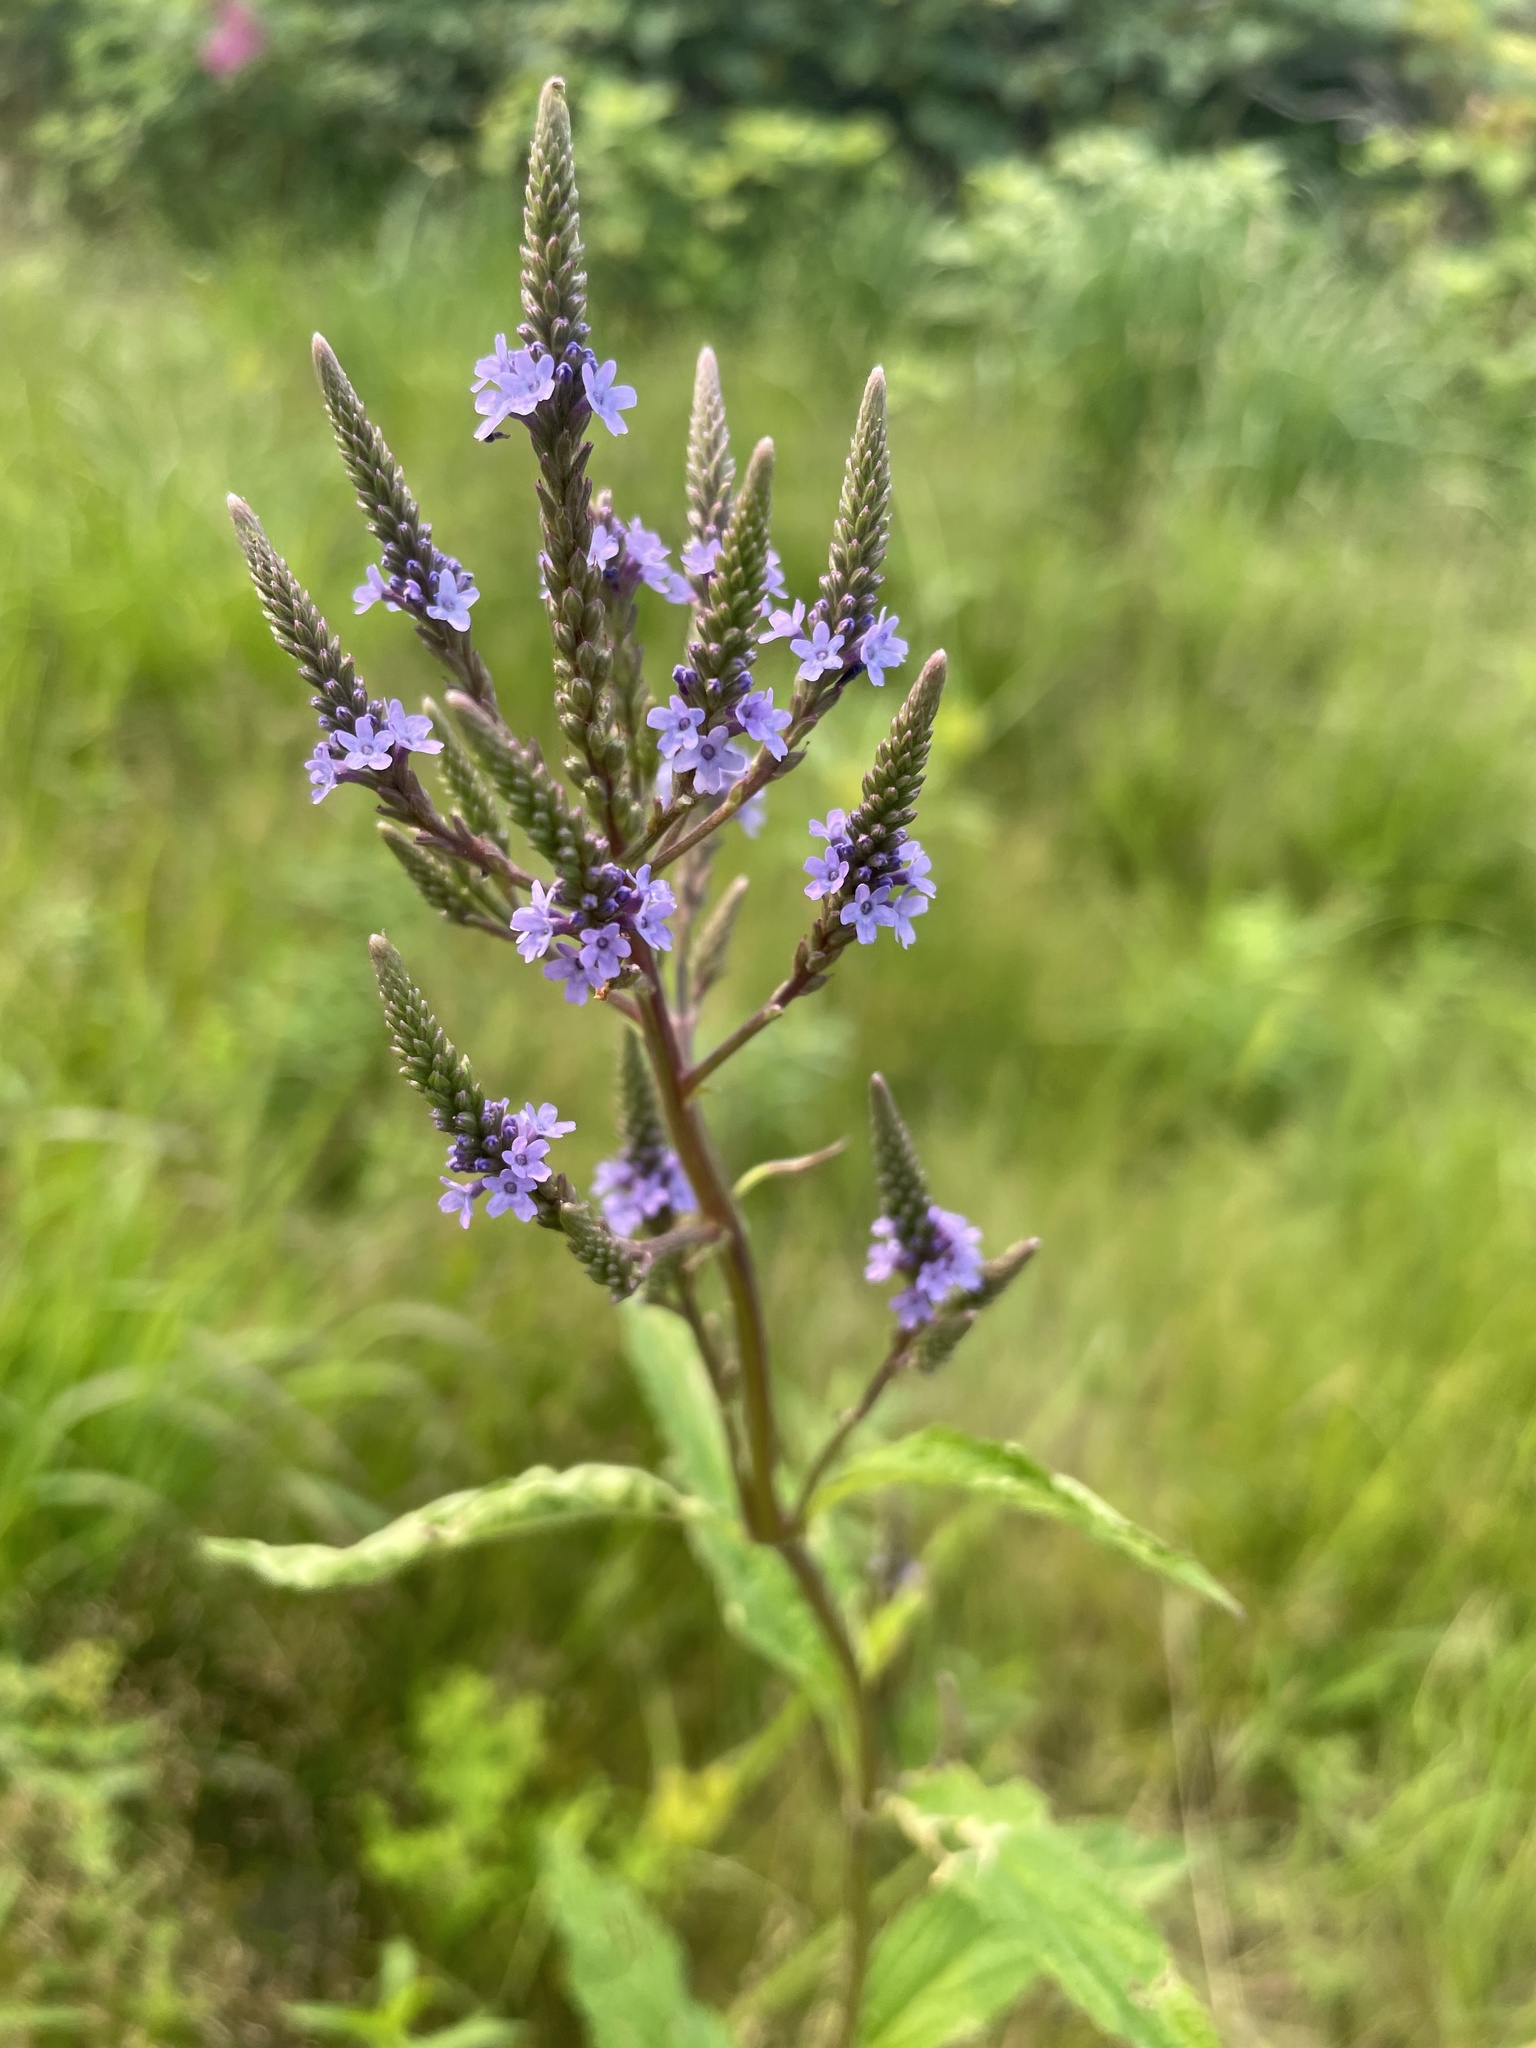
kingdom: Plantae
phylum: Tracheophyta
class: Magnoliopsida
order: Lamiales
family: Verbenaceae
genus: Verbena
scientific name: Verbena hastata
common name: American blue vervain
